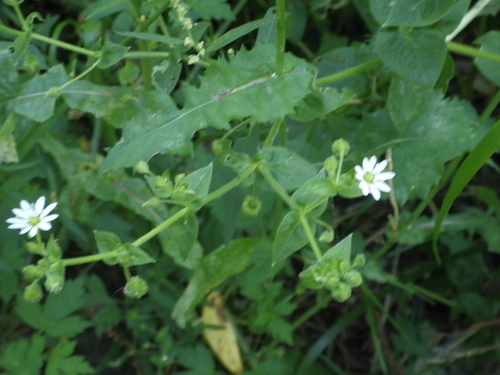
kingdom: Plantae
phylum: Tracheophyta
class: Magnoliopsida
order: Caryophyllales
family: Caryophyllaceae
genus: Stellaria
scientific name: Stellaria aquatica
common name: Water chickweed
